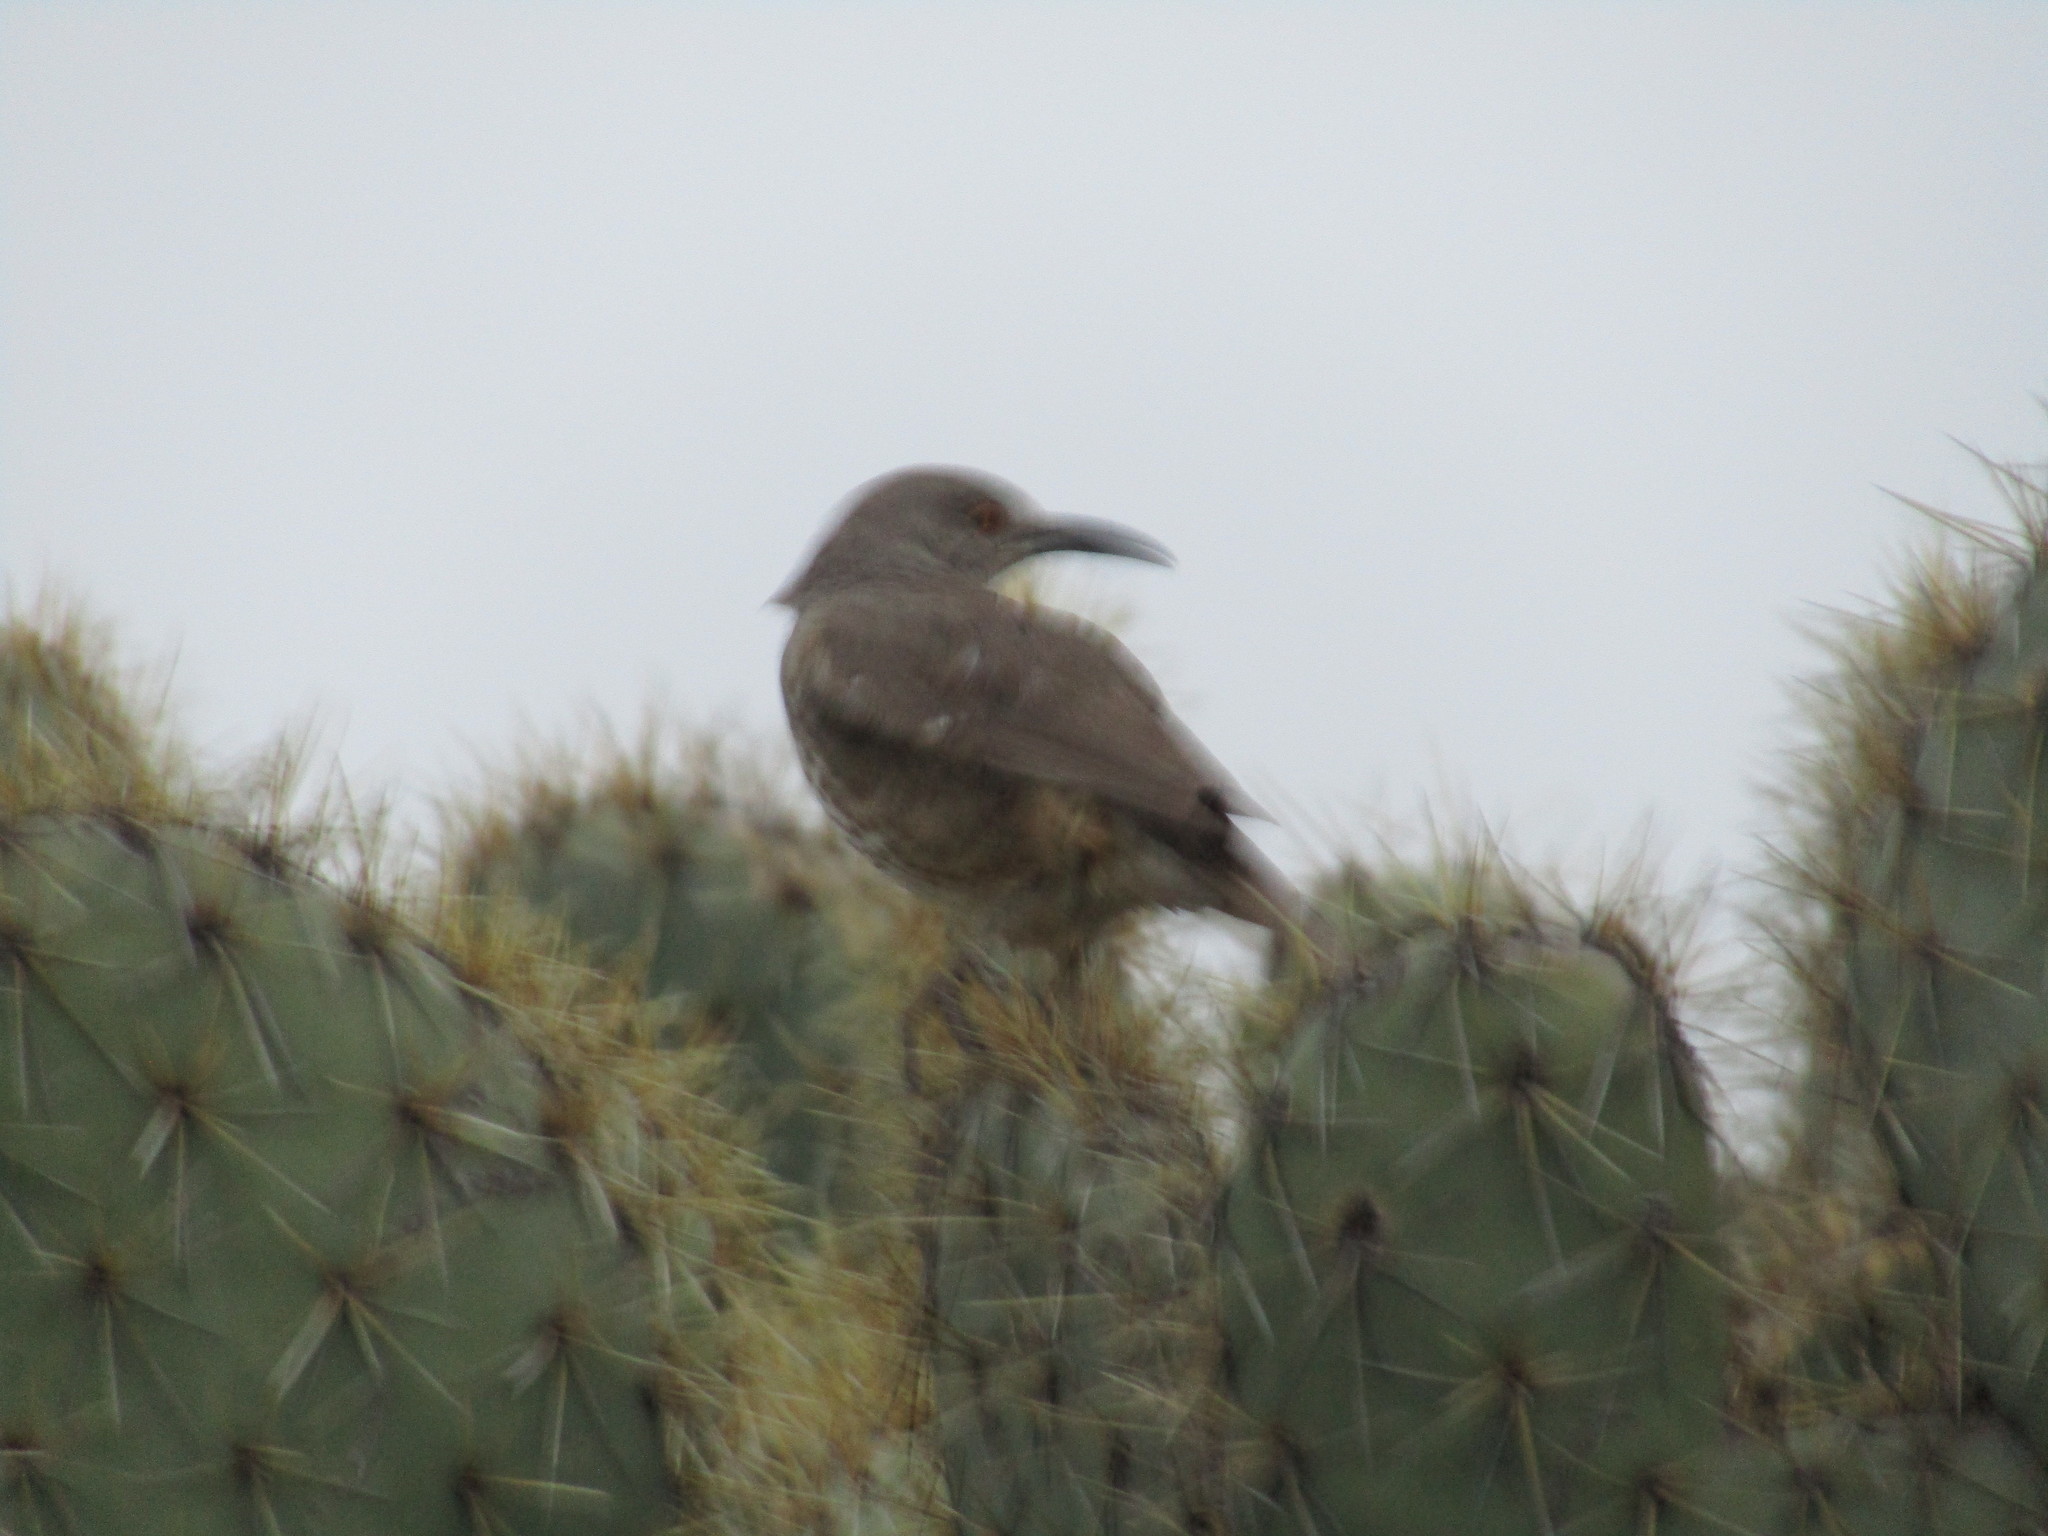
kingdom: Animalia
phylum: Chordata
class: Aves
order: Passeriformes
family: Mimidae
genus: Toxostoma
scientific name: Toxostoma curvirostre
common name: Curve-billed thrasher
